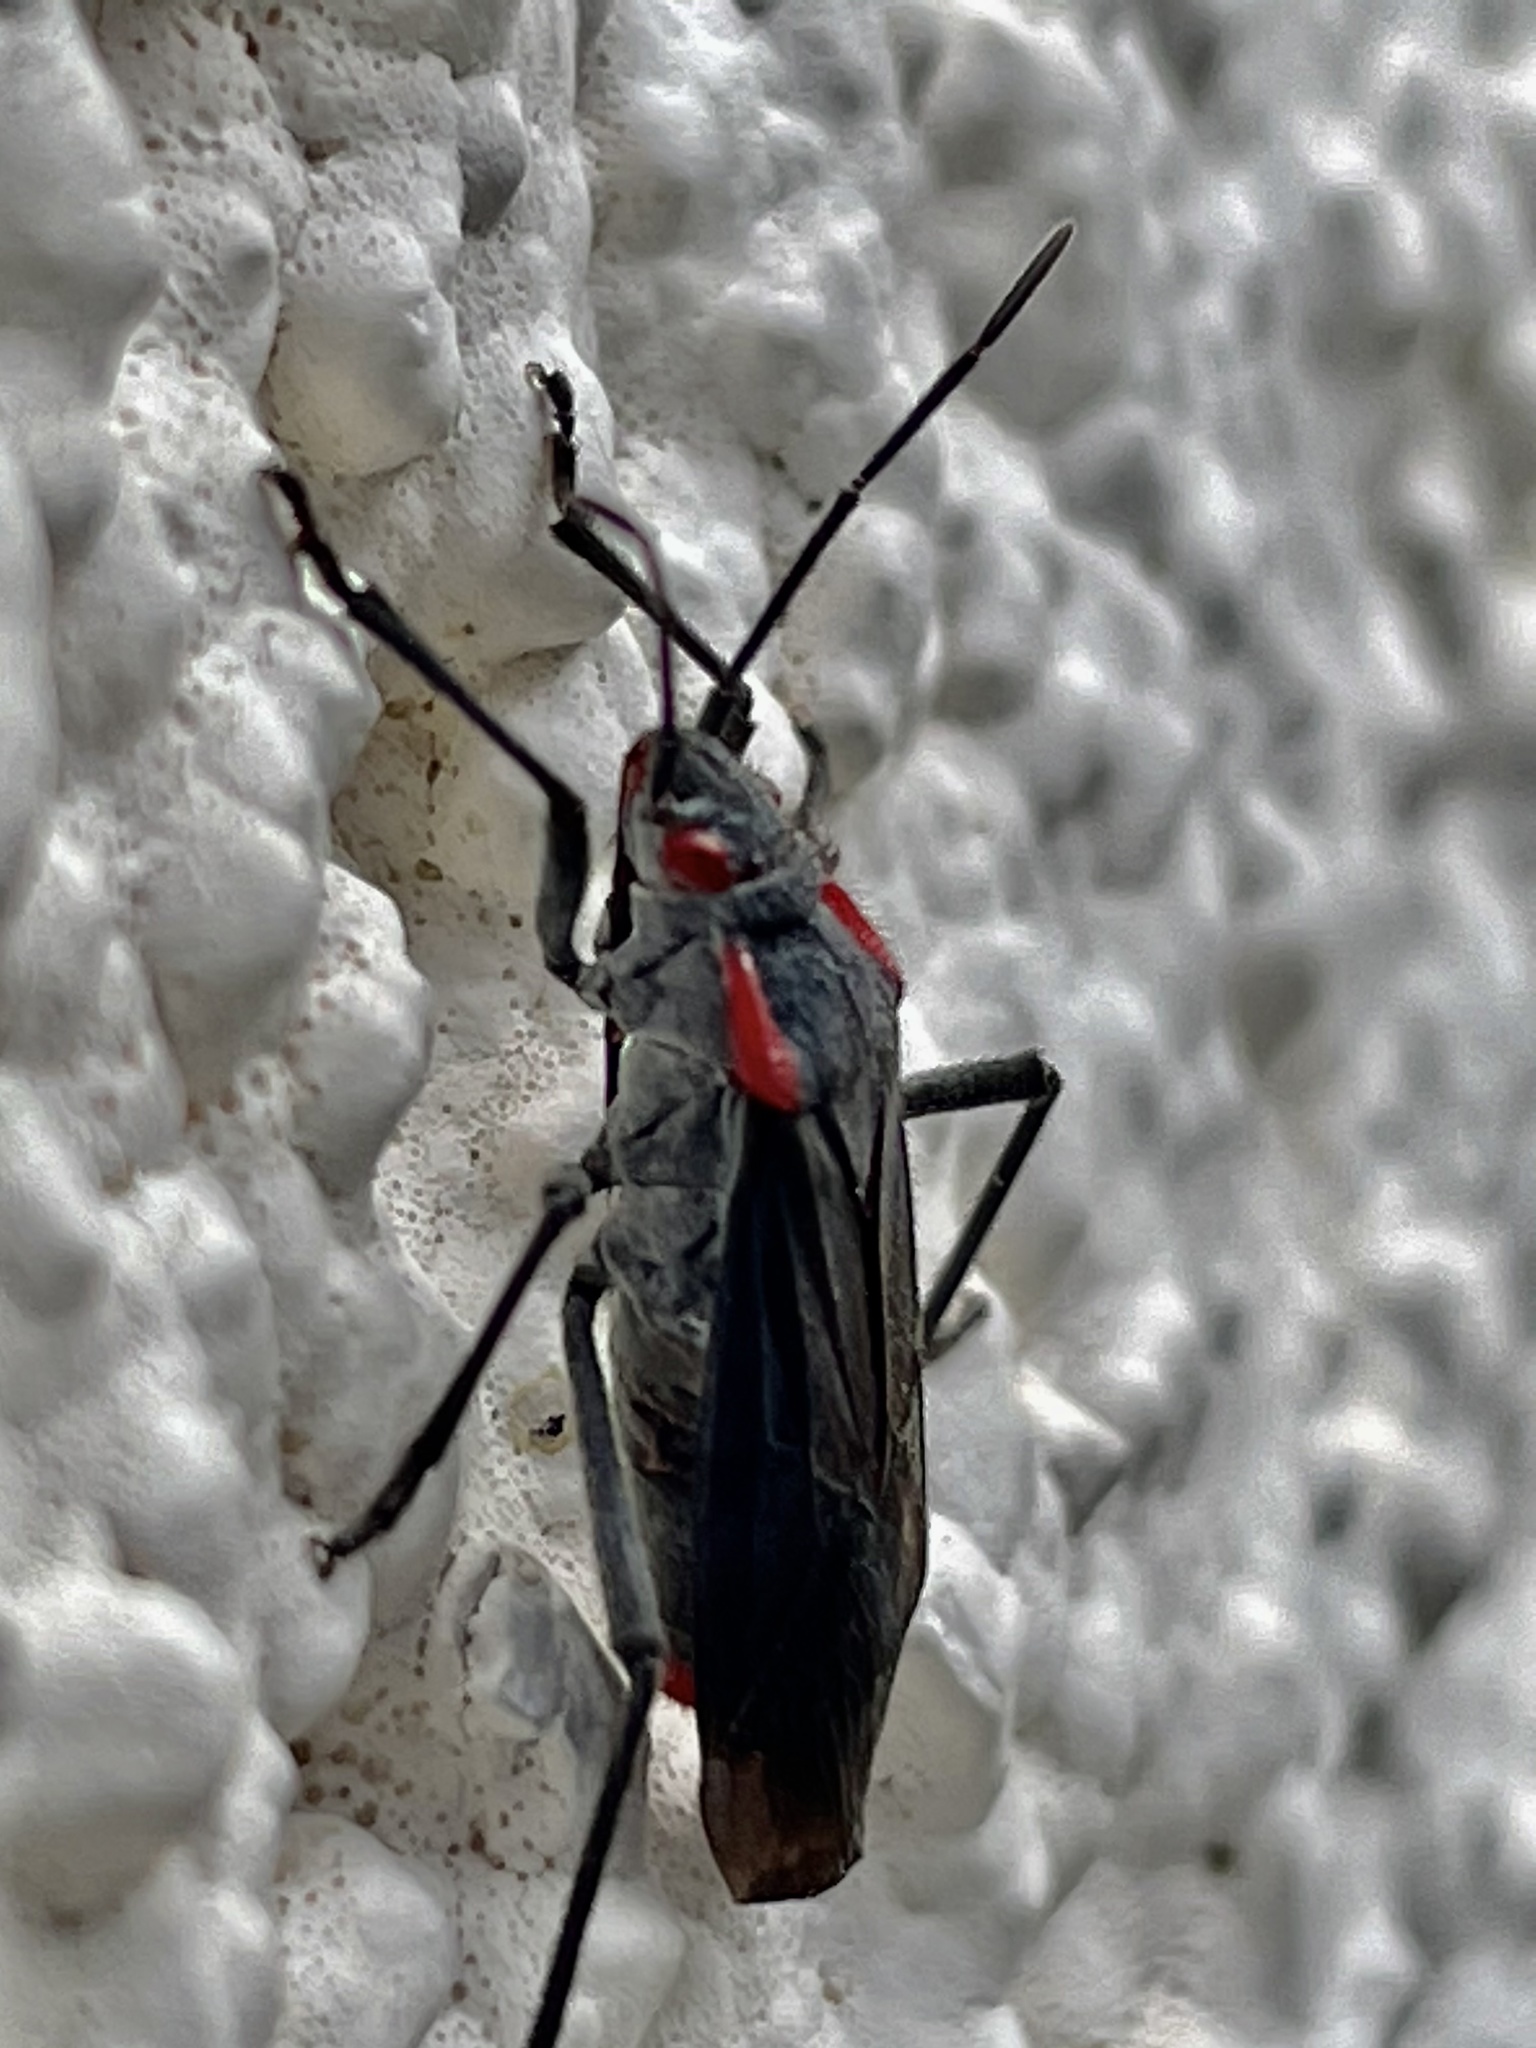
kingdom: Animalia
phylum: Arthropoda
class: Insecta
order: Hemiptera
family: Rhopalidae
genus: Jadera
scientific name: Jadera haematoloma
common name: Red-shouldered bug
